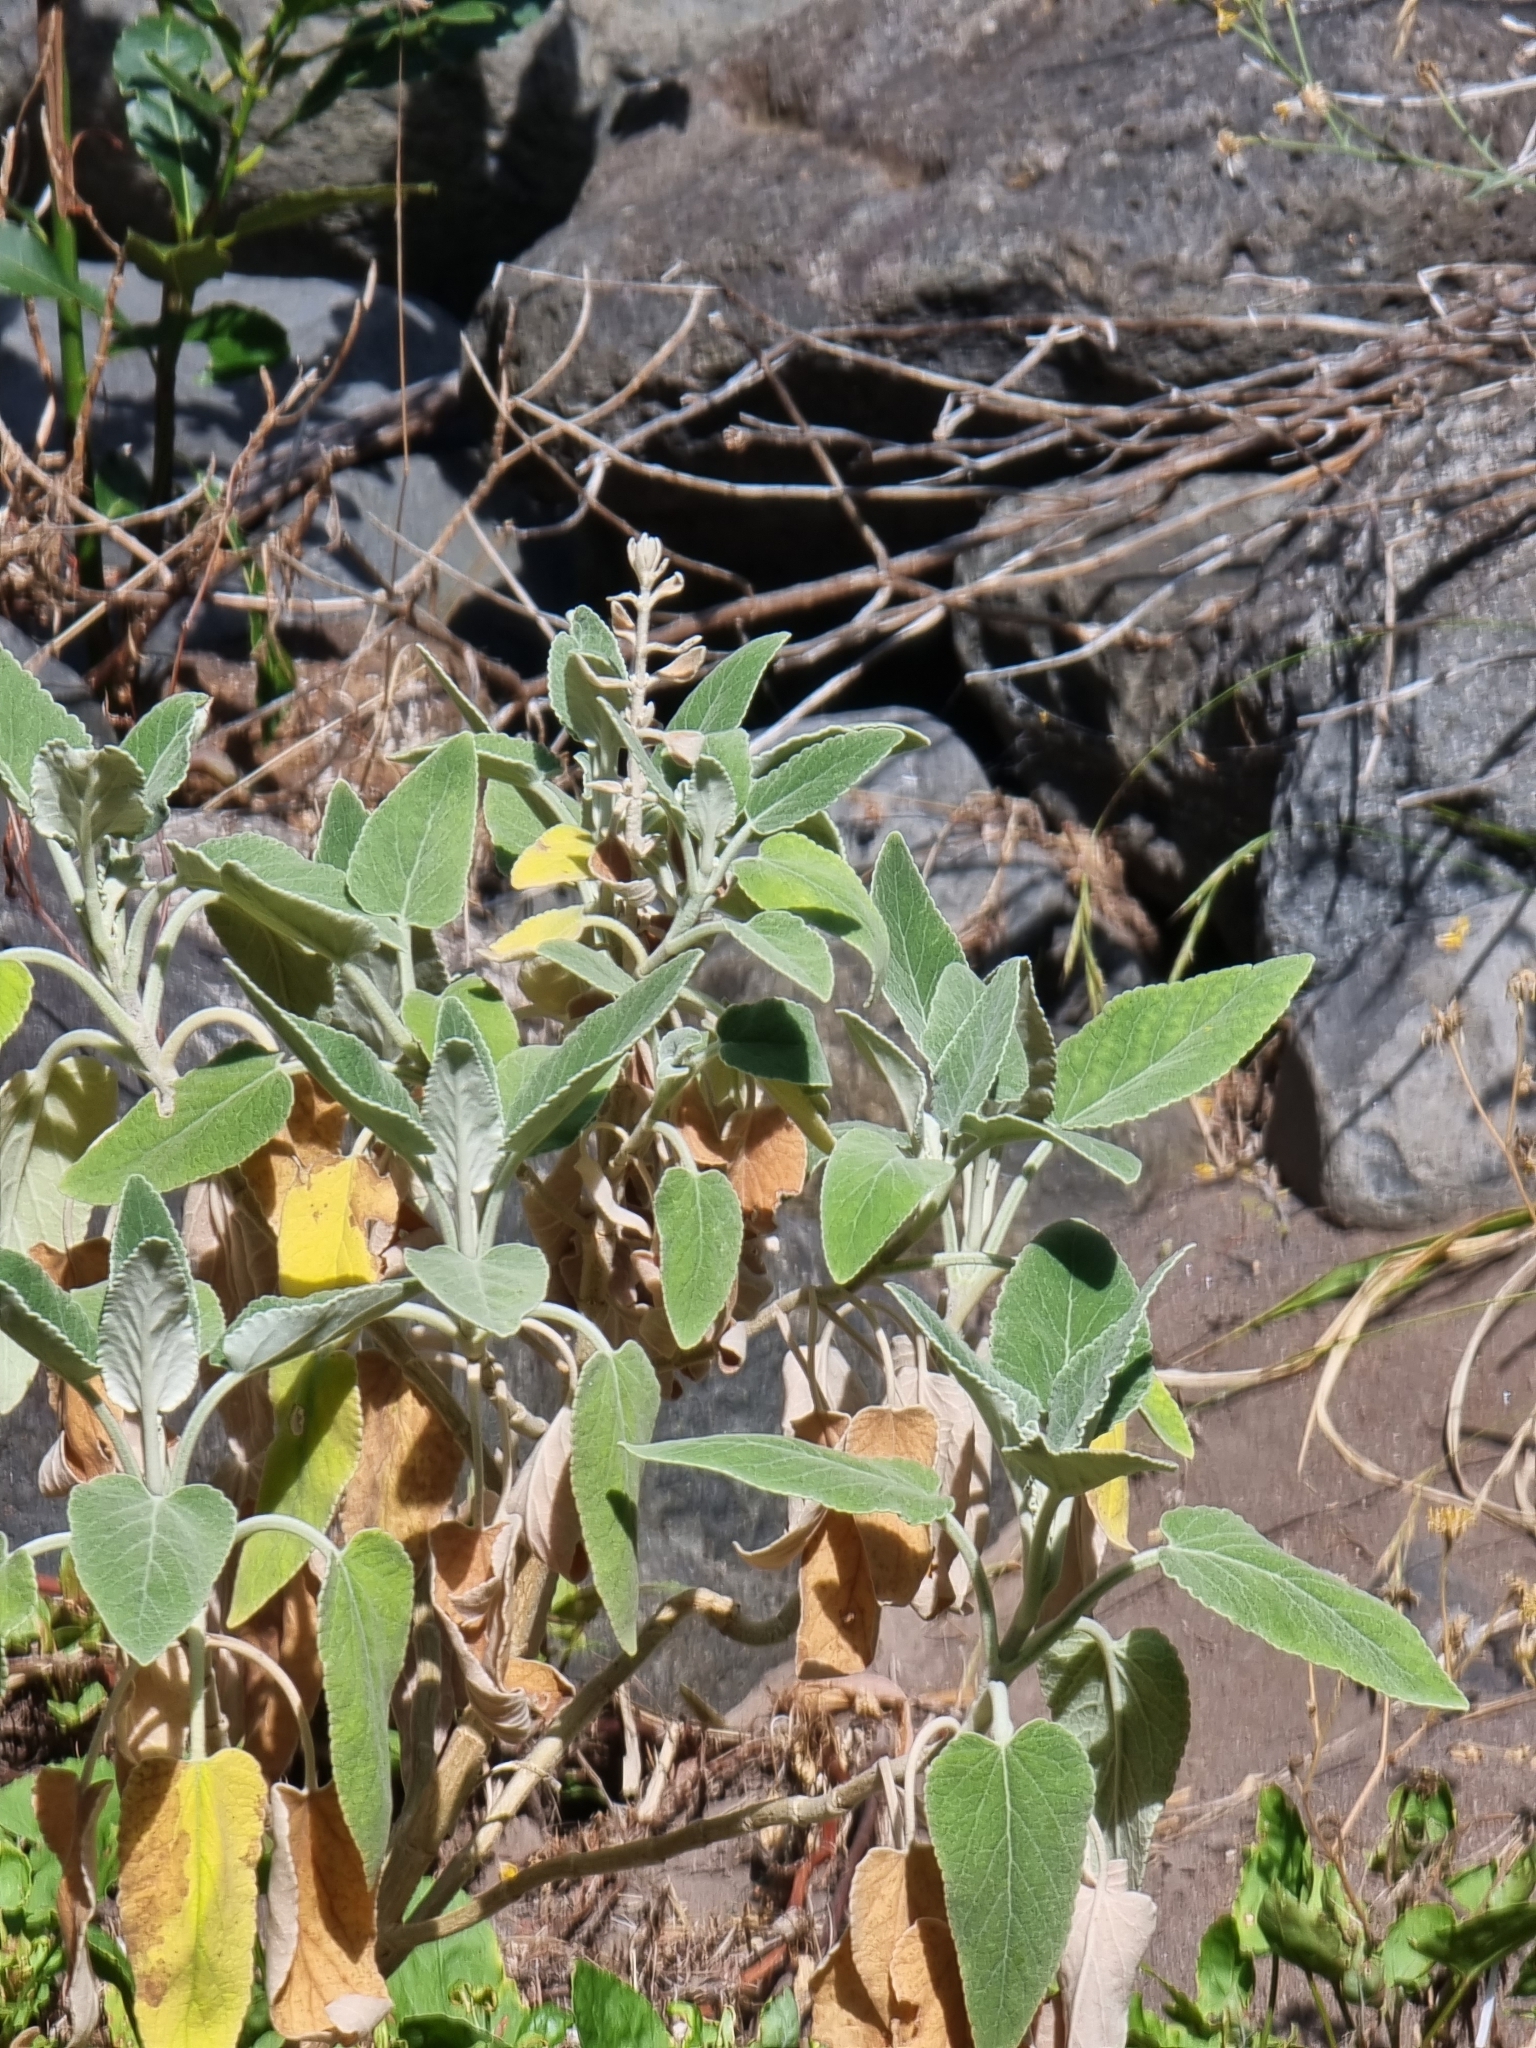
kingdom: Plantae
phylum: Tracheophyta
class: Magnoliopsida
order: Lamiales
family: Lamiaceae
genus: Sideritis
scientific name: Sideritis candicans
